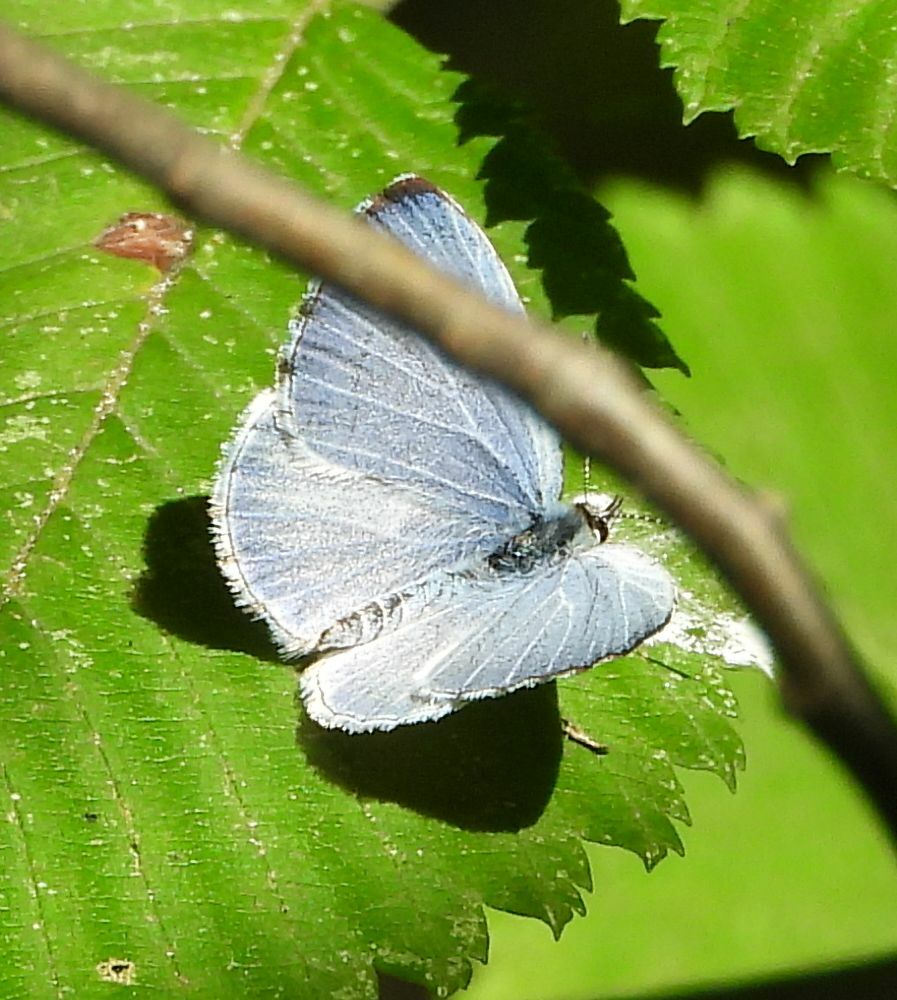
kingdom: Animalia
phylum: Arthropoda
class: Insecta
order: Lepidoptera
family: Lycaenidae
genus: Cyaniris
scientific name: Cyaniris neglecta
